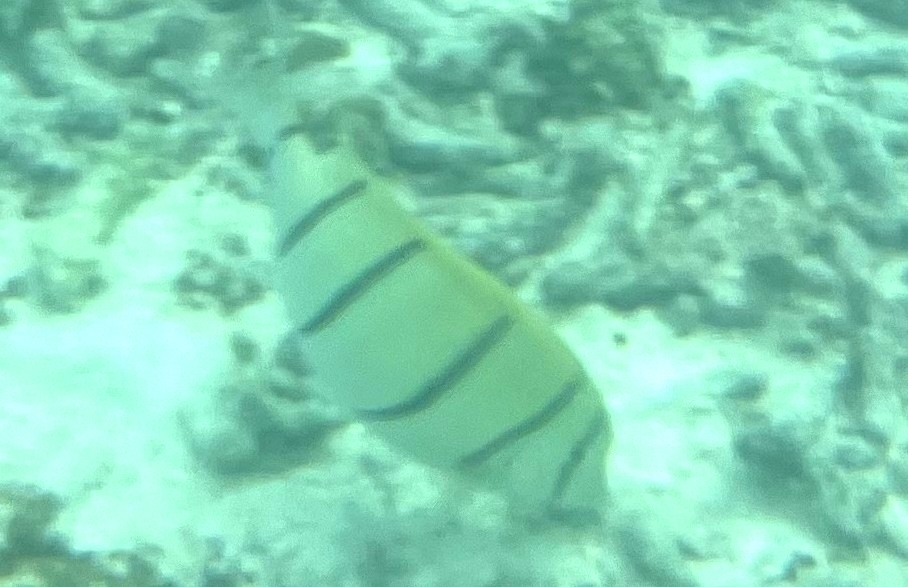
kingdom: Animalia
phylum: Chordata
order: Perciformes
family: Acanthuridae
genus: Acanthurus
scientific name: Acanthurus triostegus
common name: Convict surgeonfish
